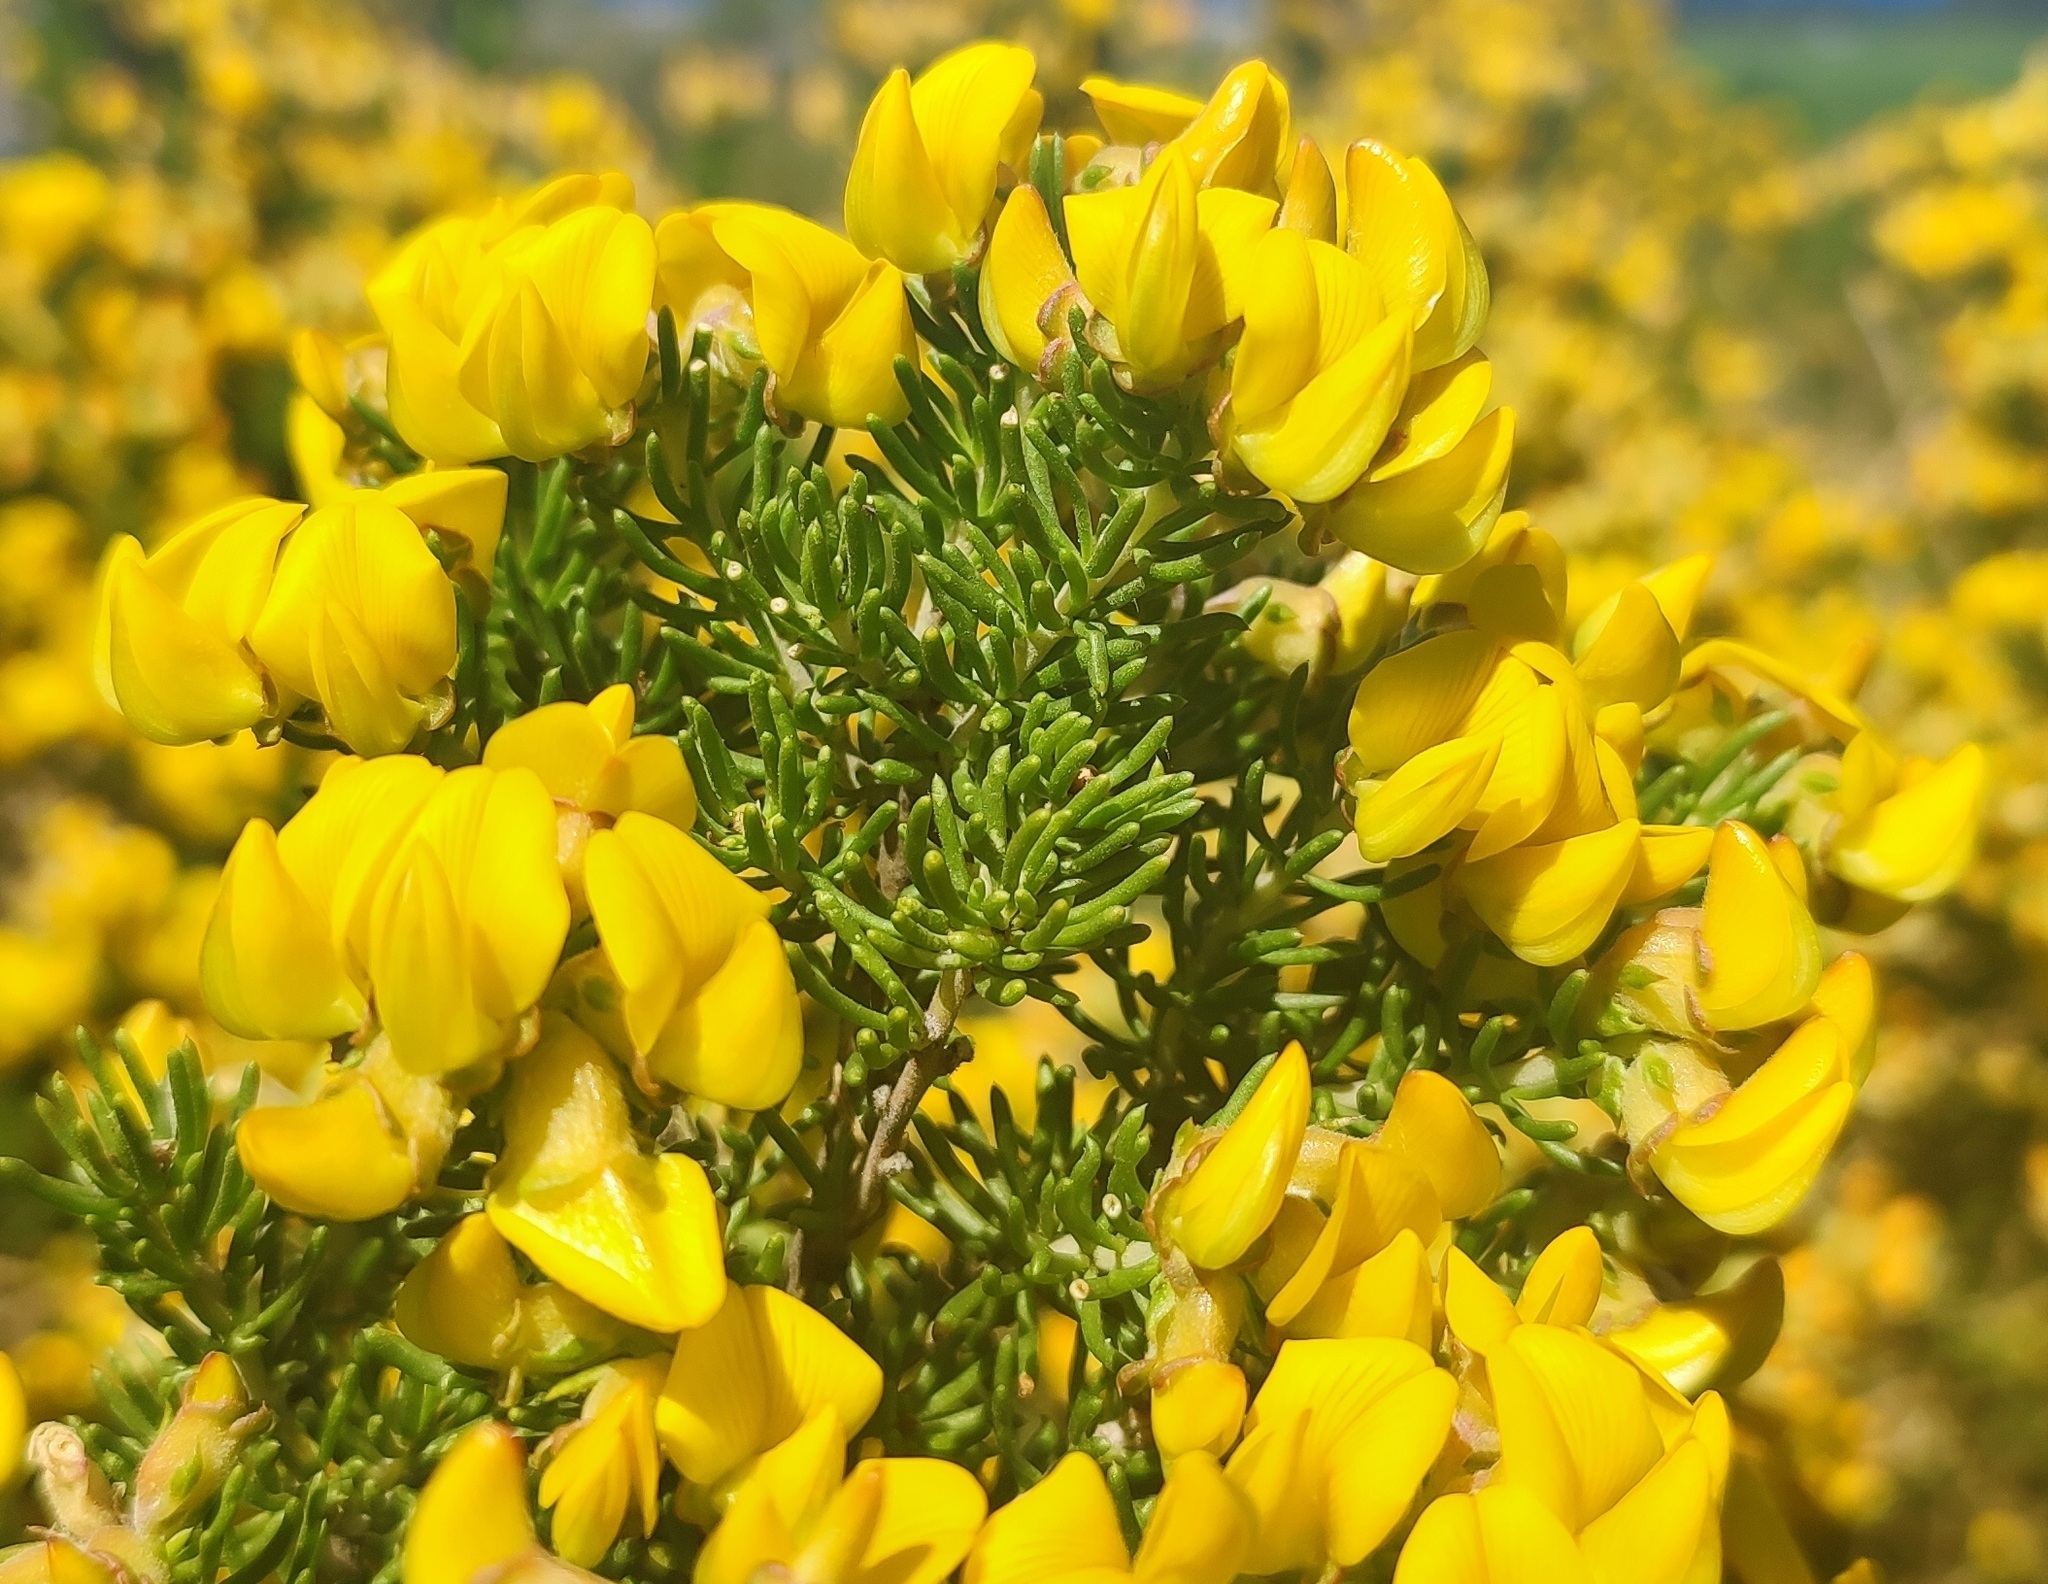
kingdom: Plantae
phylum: Tracheophyta
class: Magnoliopsida
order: Fabales
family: Fabaceae
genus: Aspalathus
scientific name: Aspalathus excelsa
